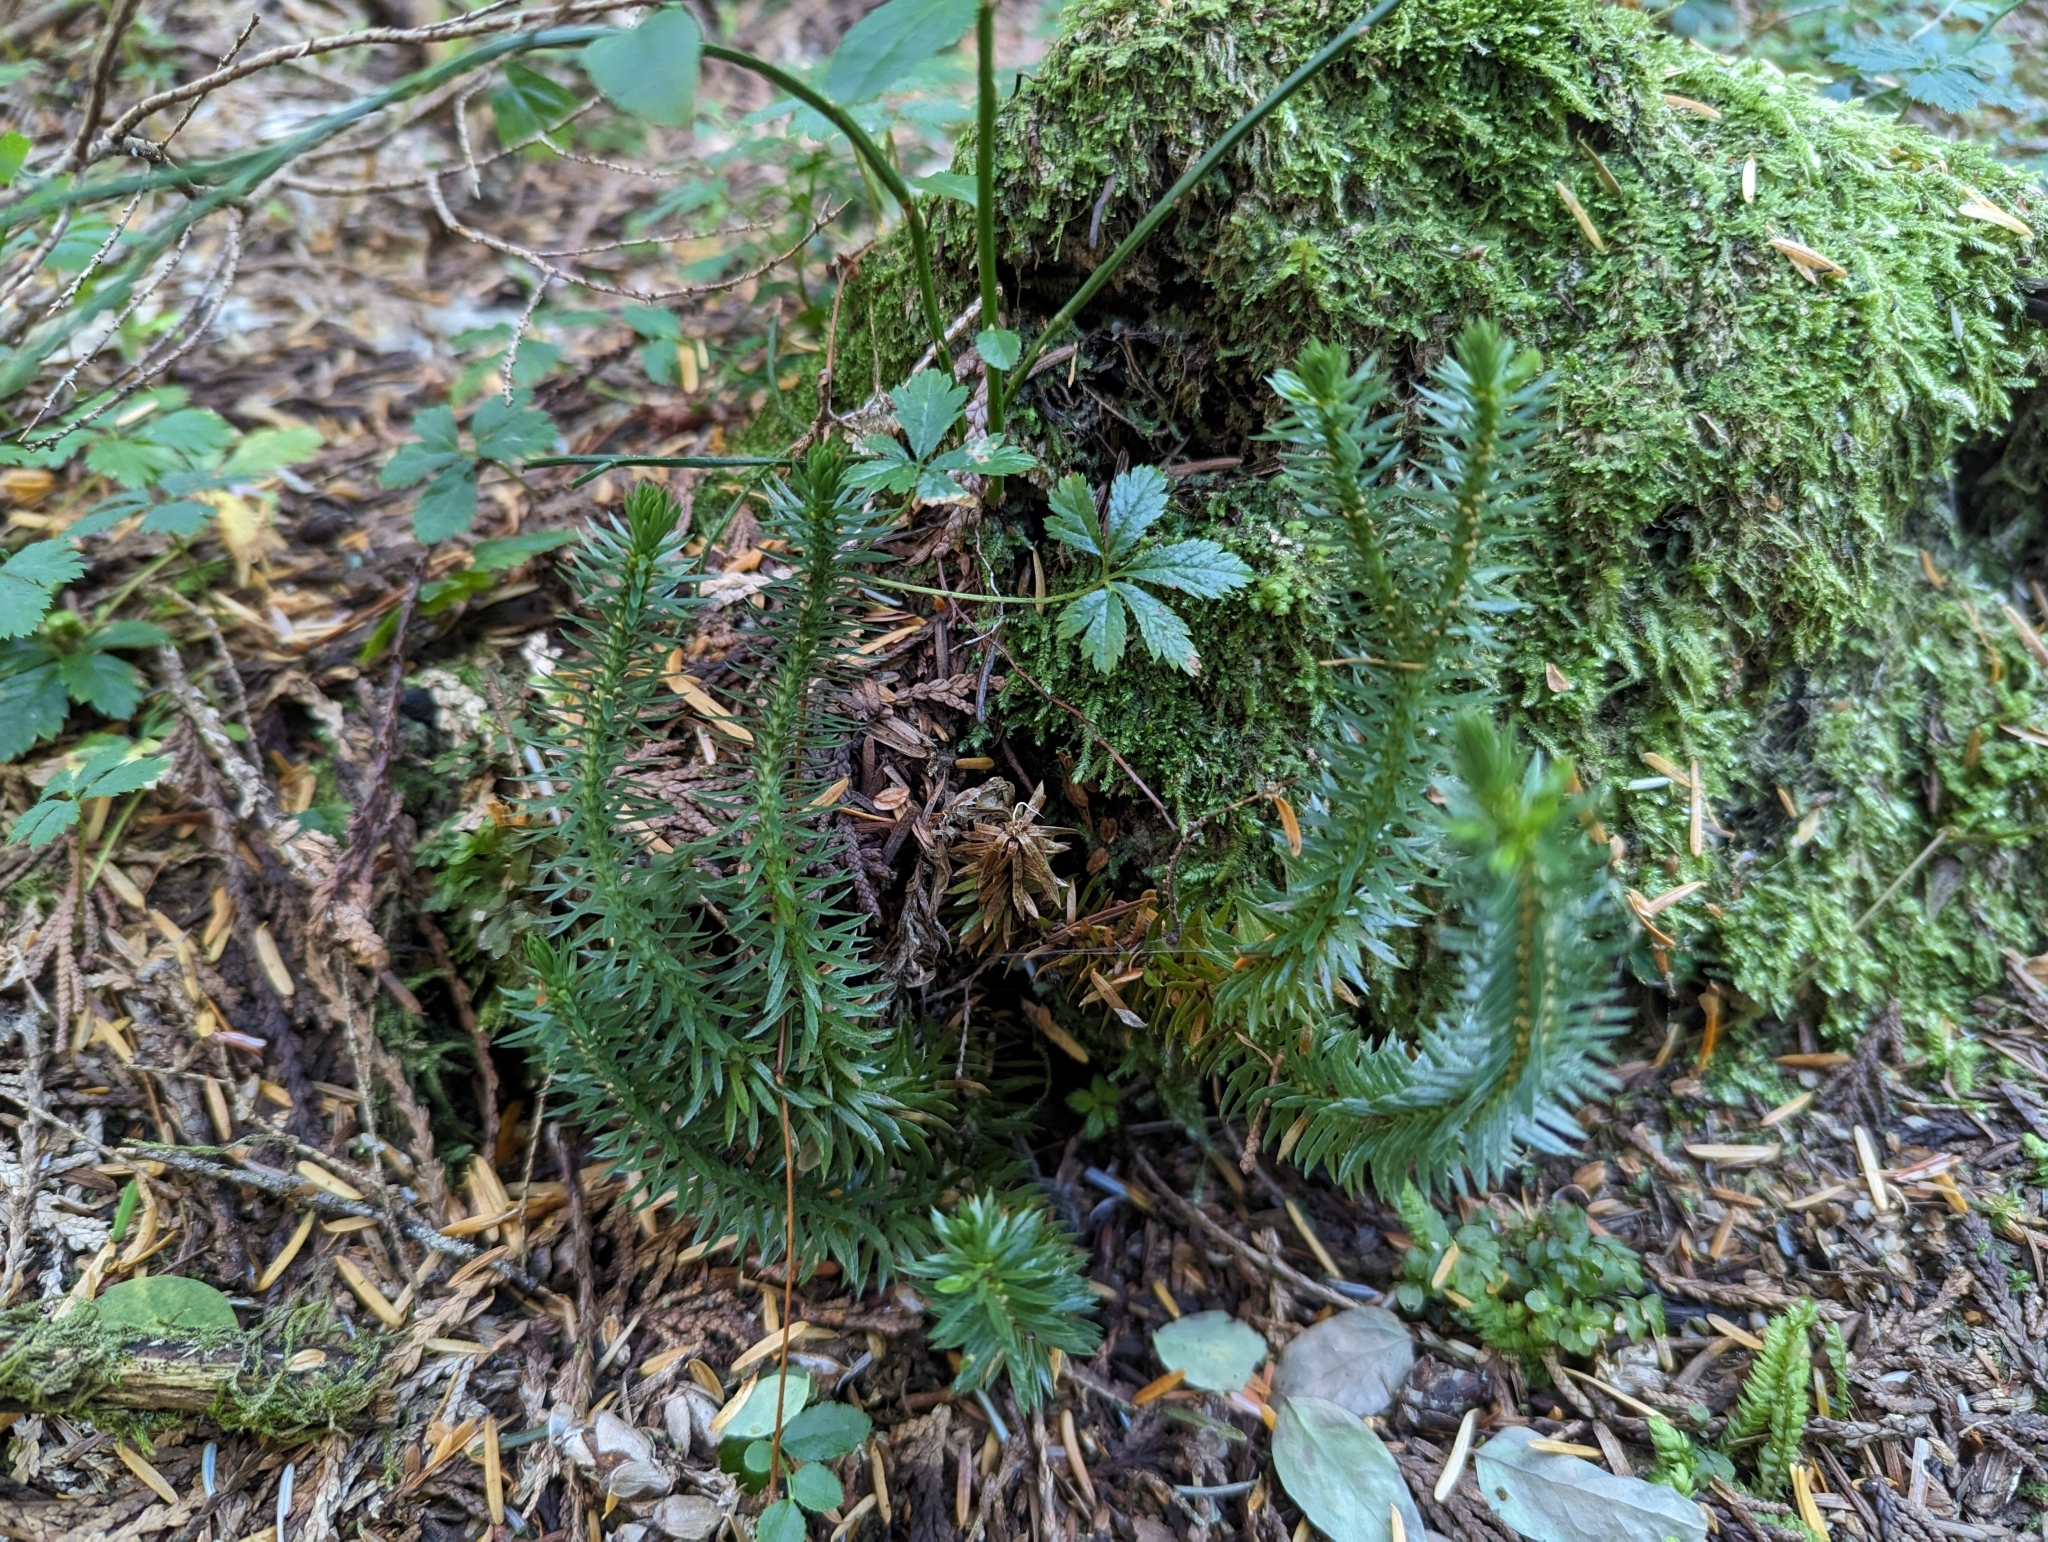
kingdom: Plantae
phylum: Tracheophyta
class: Lycopodiopsida
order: Lycopodiales
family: Lycopodiaceae
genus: Huperzia
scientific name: Huperzia occidentalis
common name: Western clubmoss
